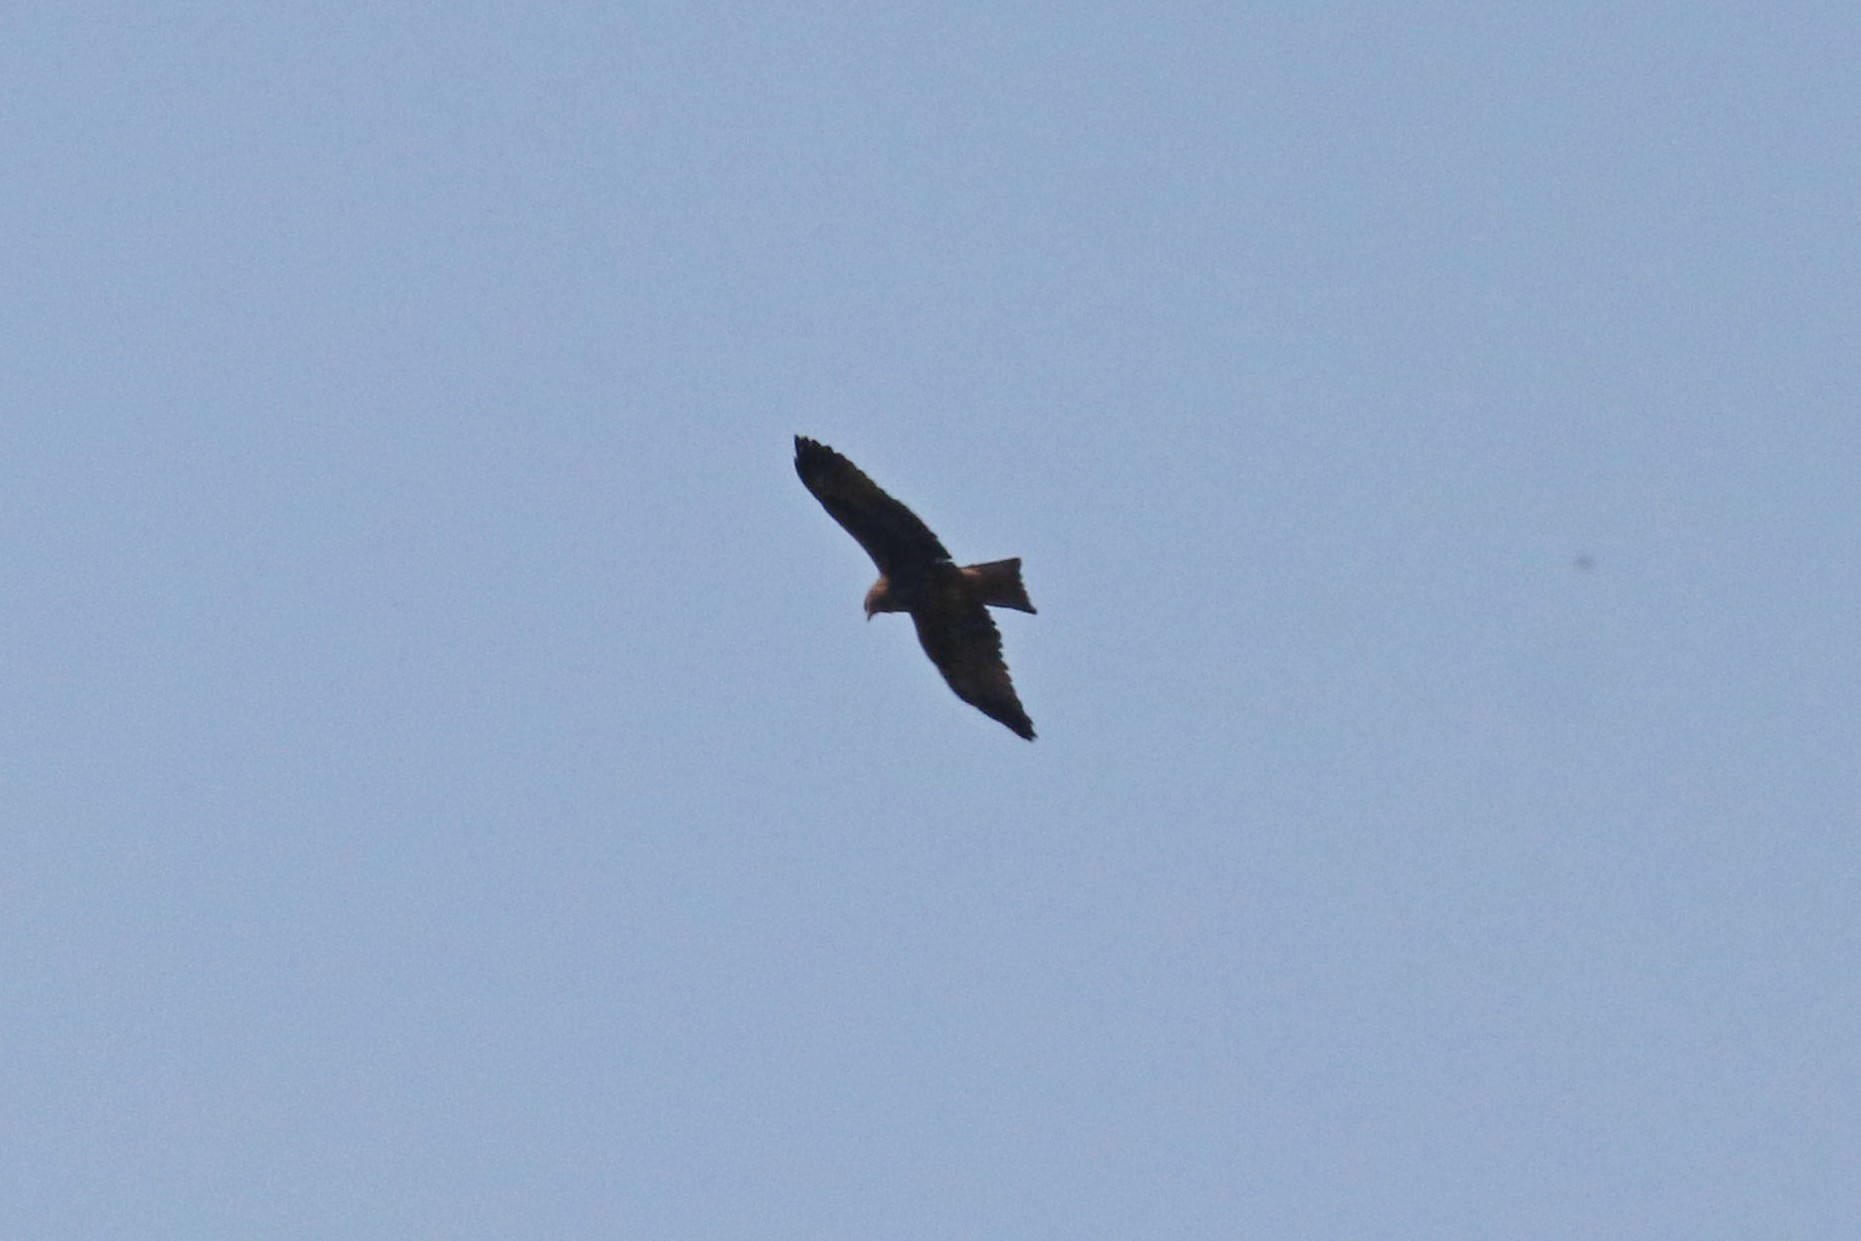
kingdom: Animalia
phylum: Chordata
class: Aves
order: Accipitriformes
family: Accipitridae
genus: Milvus
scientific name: Milvus migrans
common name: Black kite
